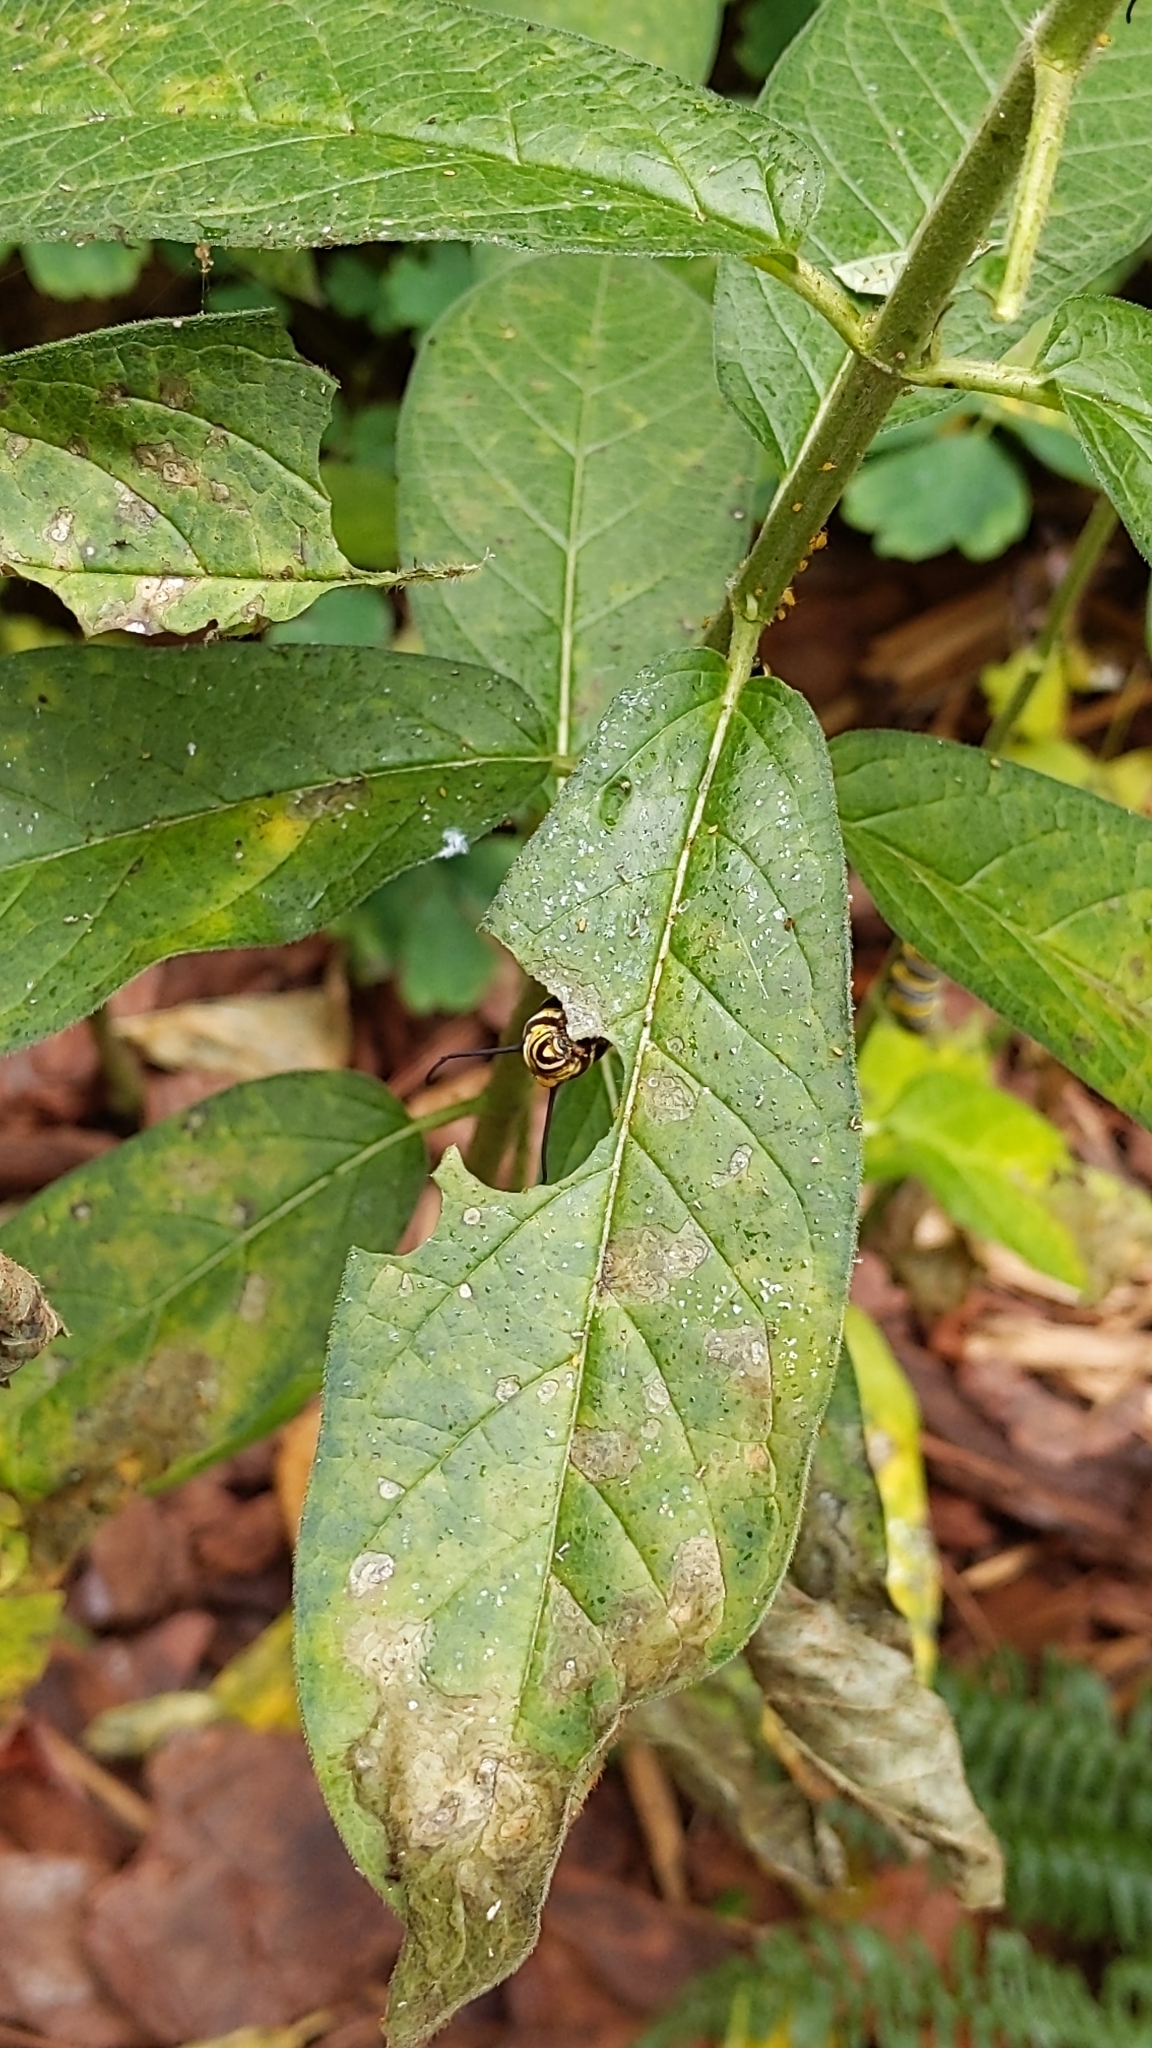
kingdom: Animalia
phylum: Arthropoda
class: Insecta
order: Lepidoptera
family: Nymphalidae
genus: Danaus
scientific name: Danaus plexippus
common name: Monarch
